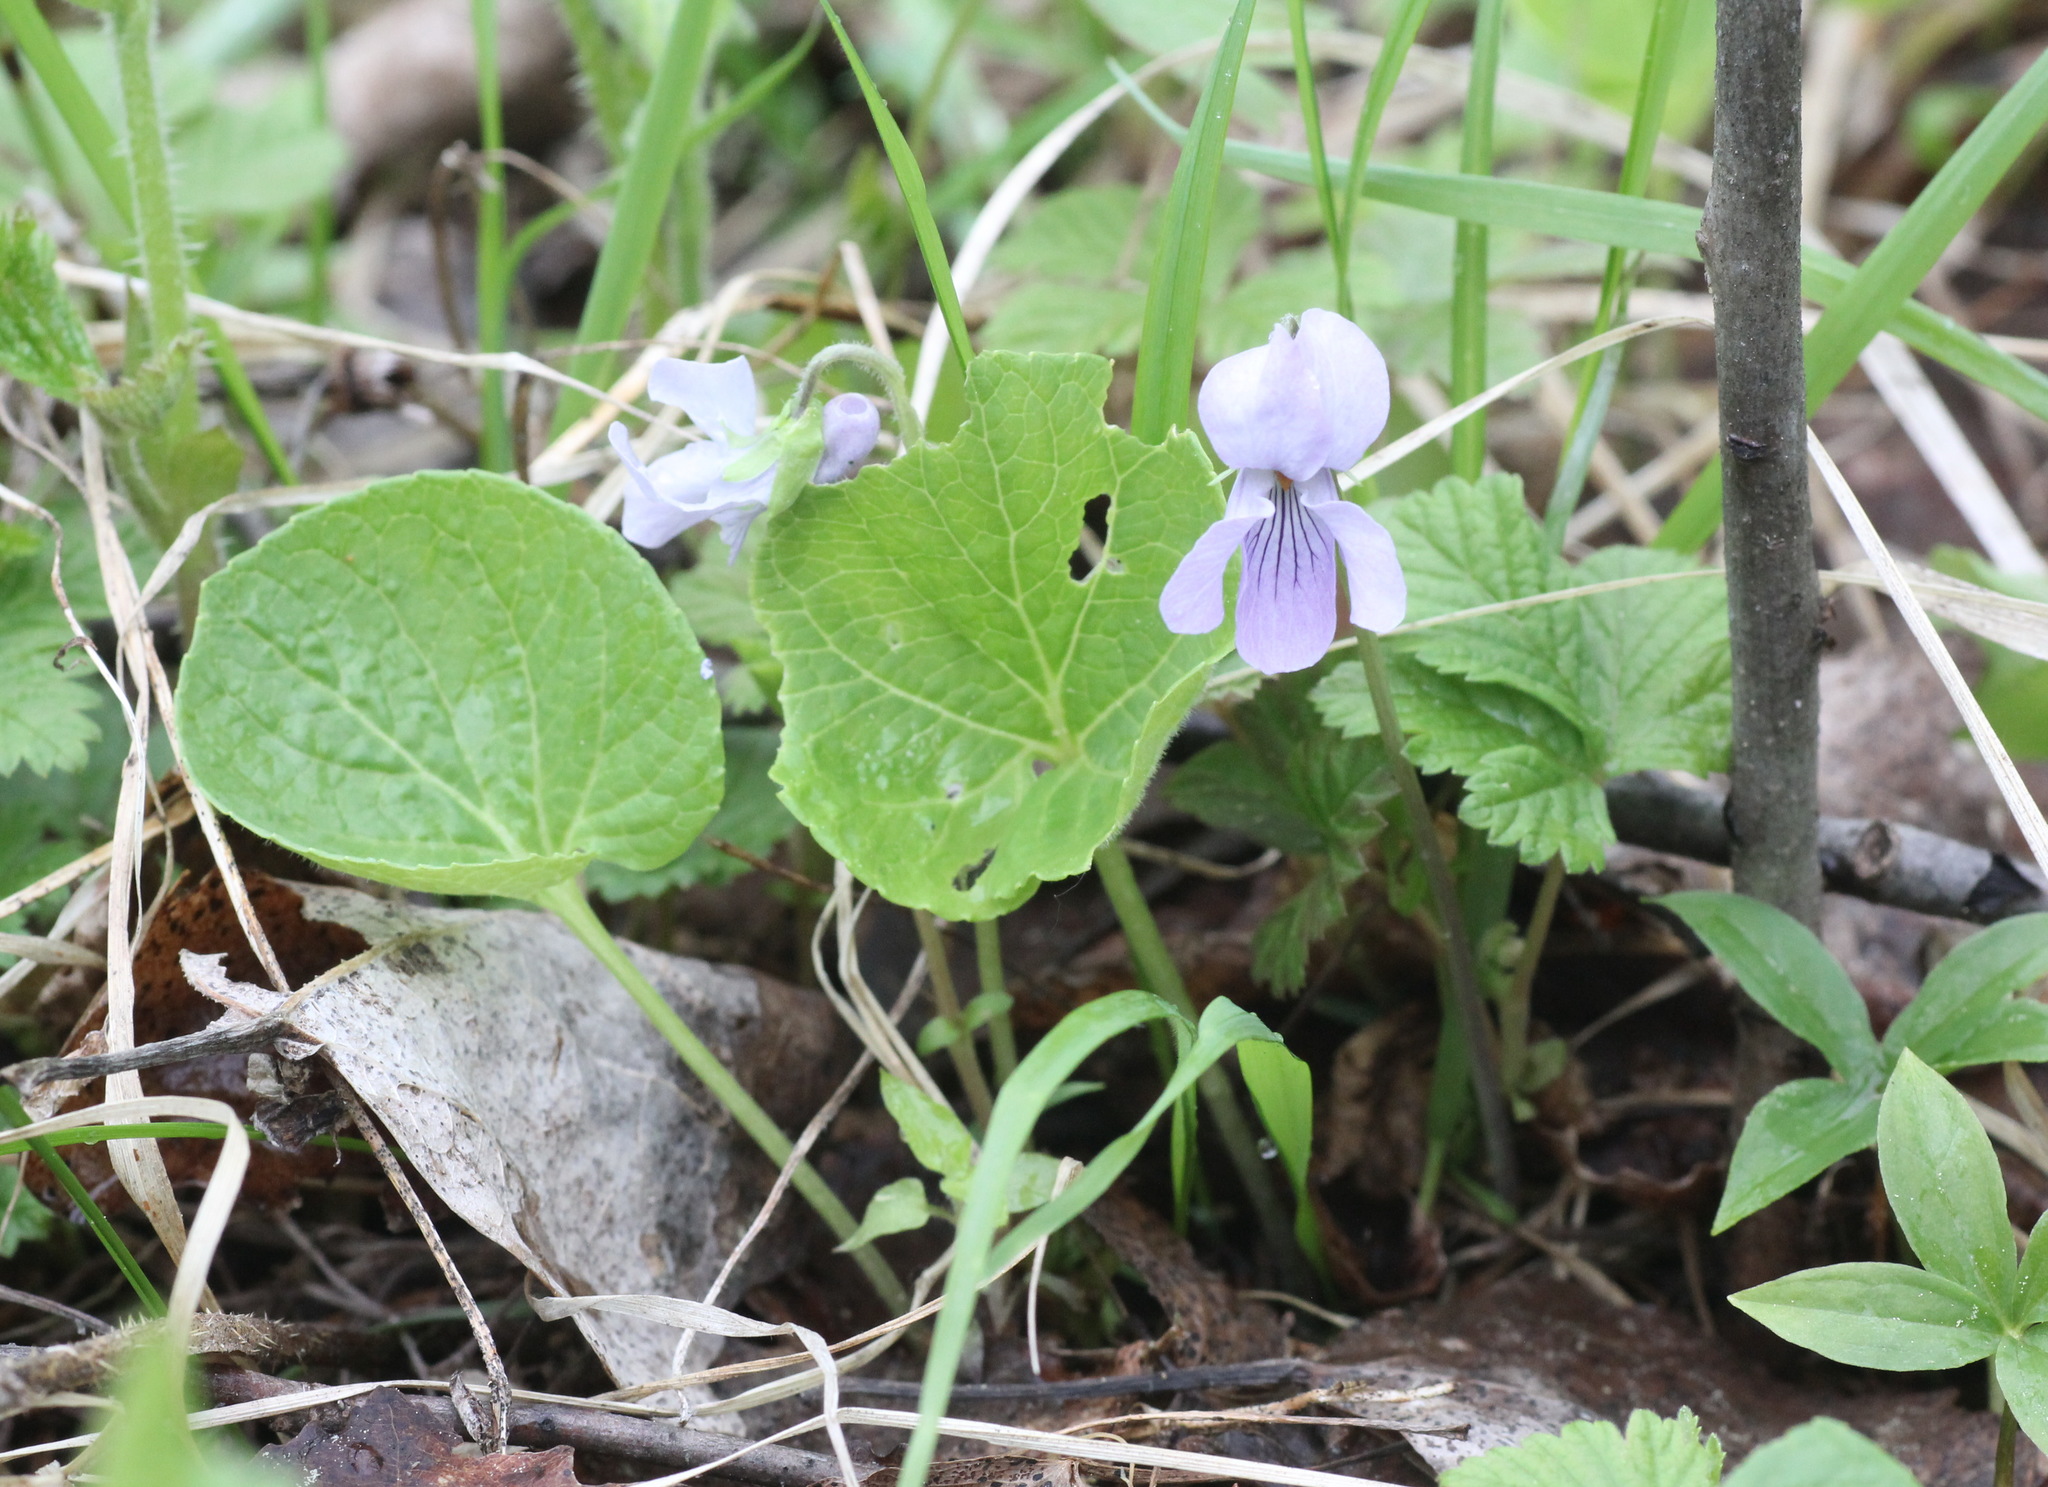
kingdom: Plantae
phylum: Tracheophyta
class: Magnoliopsida
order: Malpighiales
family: Violaceae
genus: Viola
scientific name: Viola epipsila
